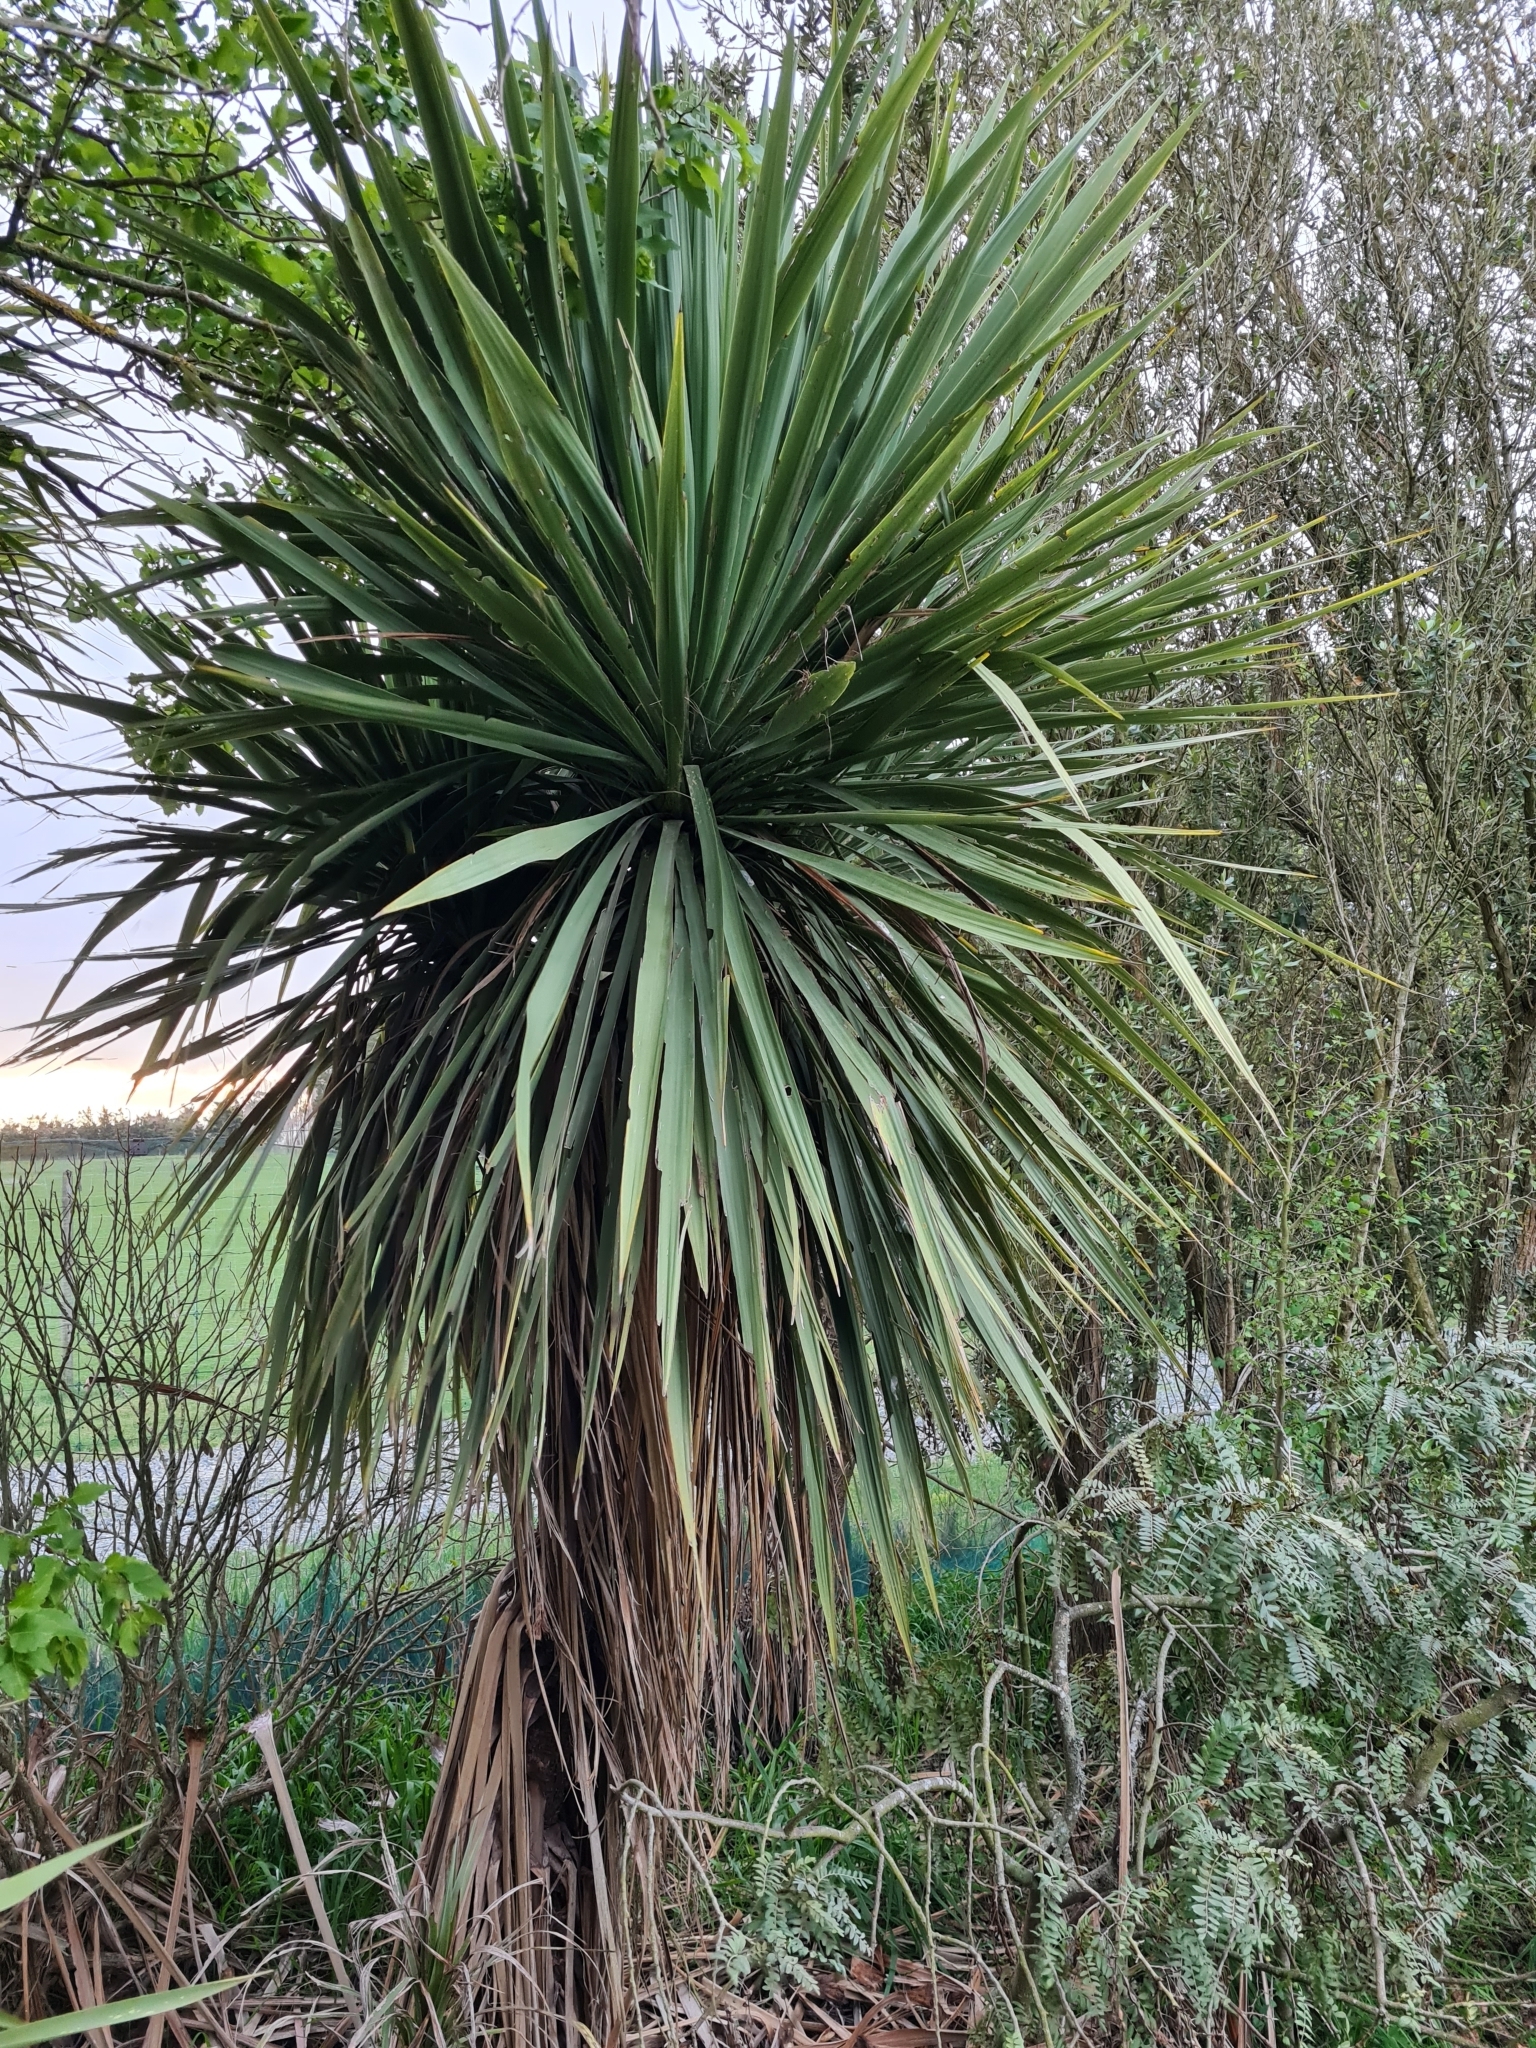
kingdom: Plantae
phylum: Tracheophyta
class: Liliopsida
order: Asparagales
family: Asparagaceae
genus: Cordyline
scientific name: Cordyline australis
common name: Cabbage-palm
